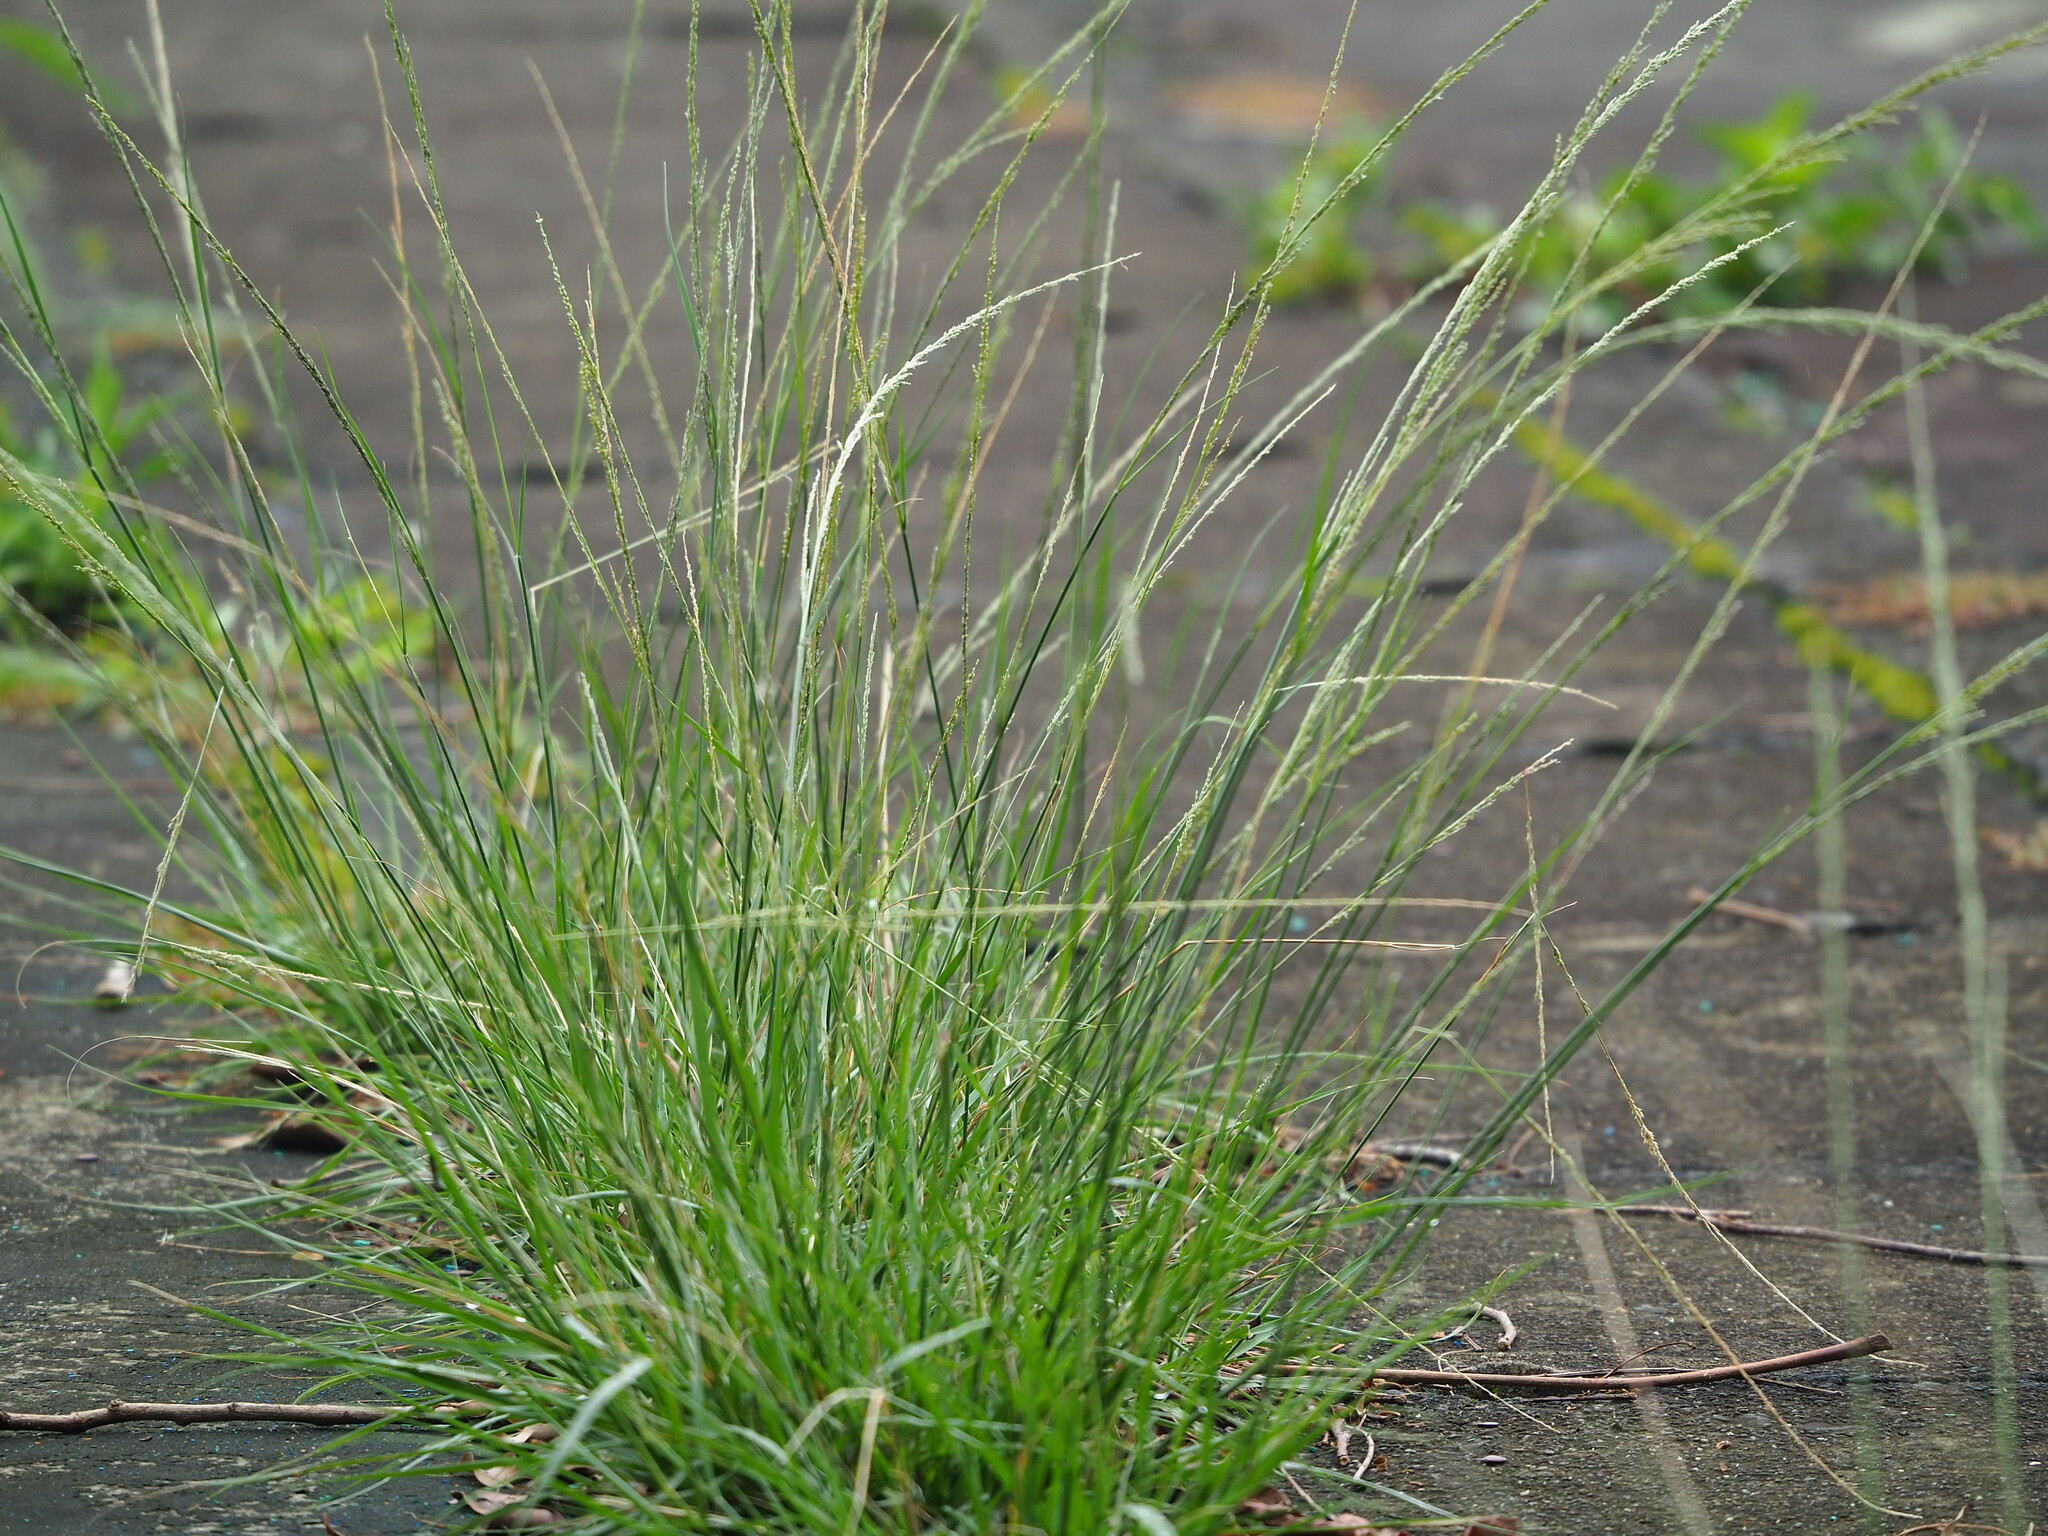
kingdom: Plantae
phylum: Tracheophyta
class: Liliopsida
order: Poales
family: Poaceae
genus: Sporobolus
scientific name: Sporobolus indicus
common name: Smut grass
